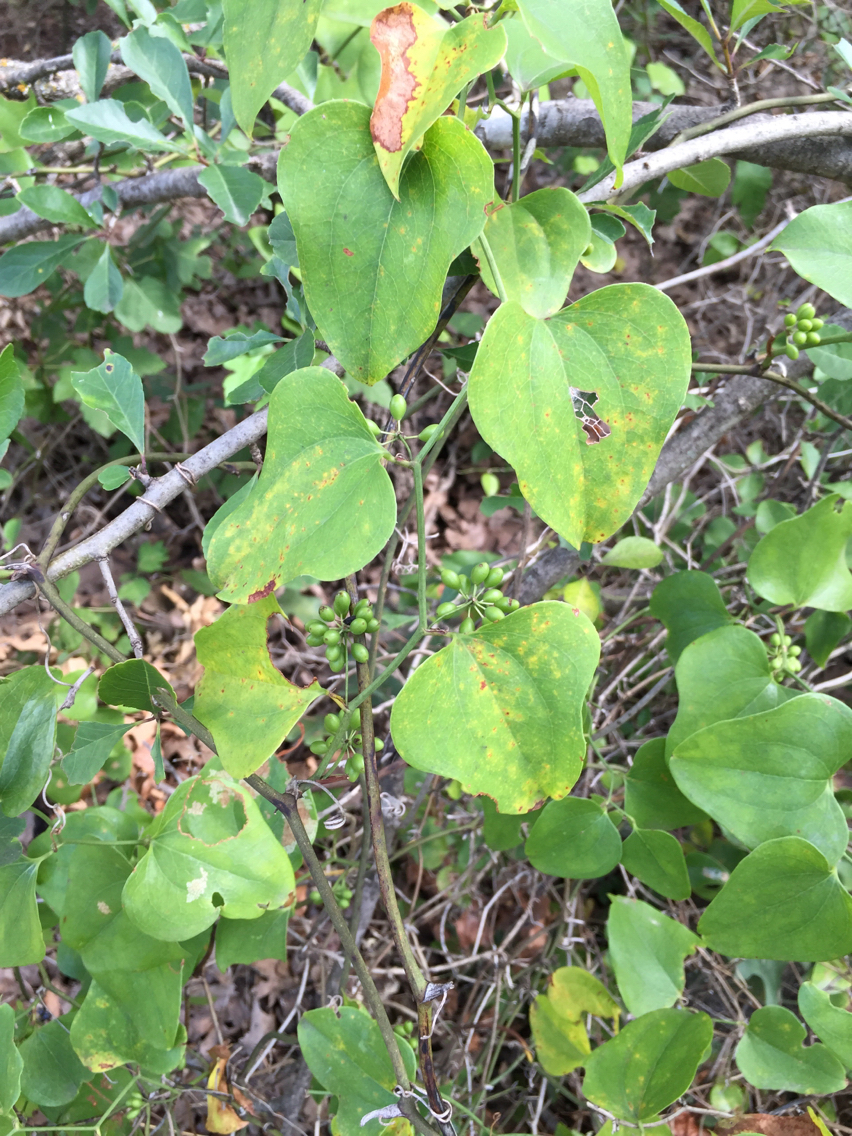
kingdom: Plantae
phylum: Tracheophyta
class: Liliopsida
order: Liliales
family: Smilacaceae
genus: Smilax
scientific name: Smilax bona-nox
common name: Catbrier
